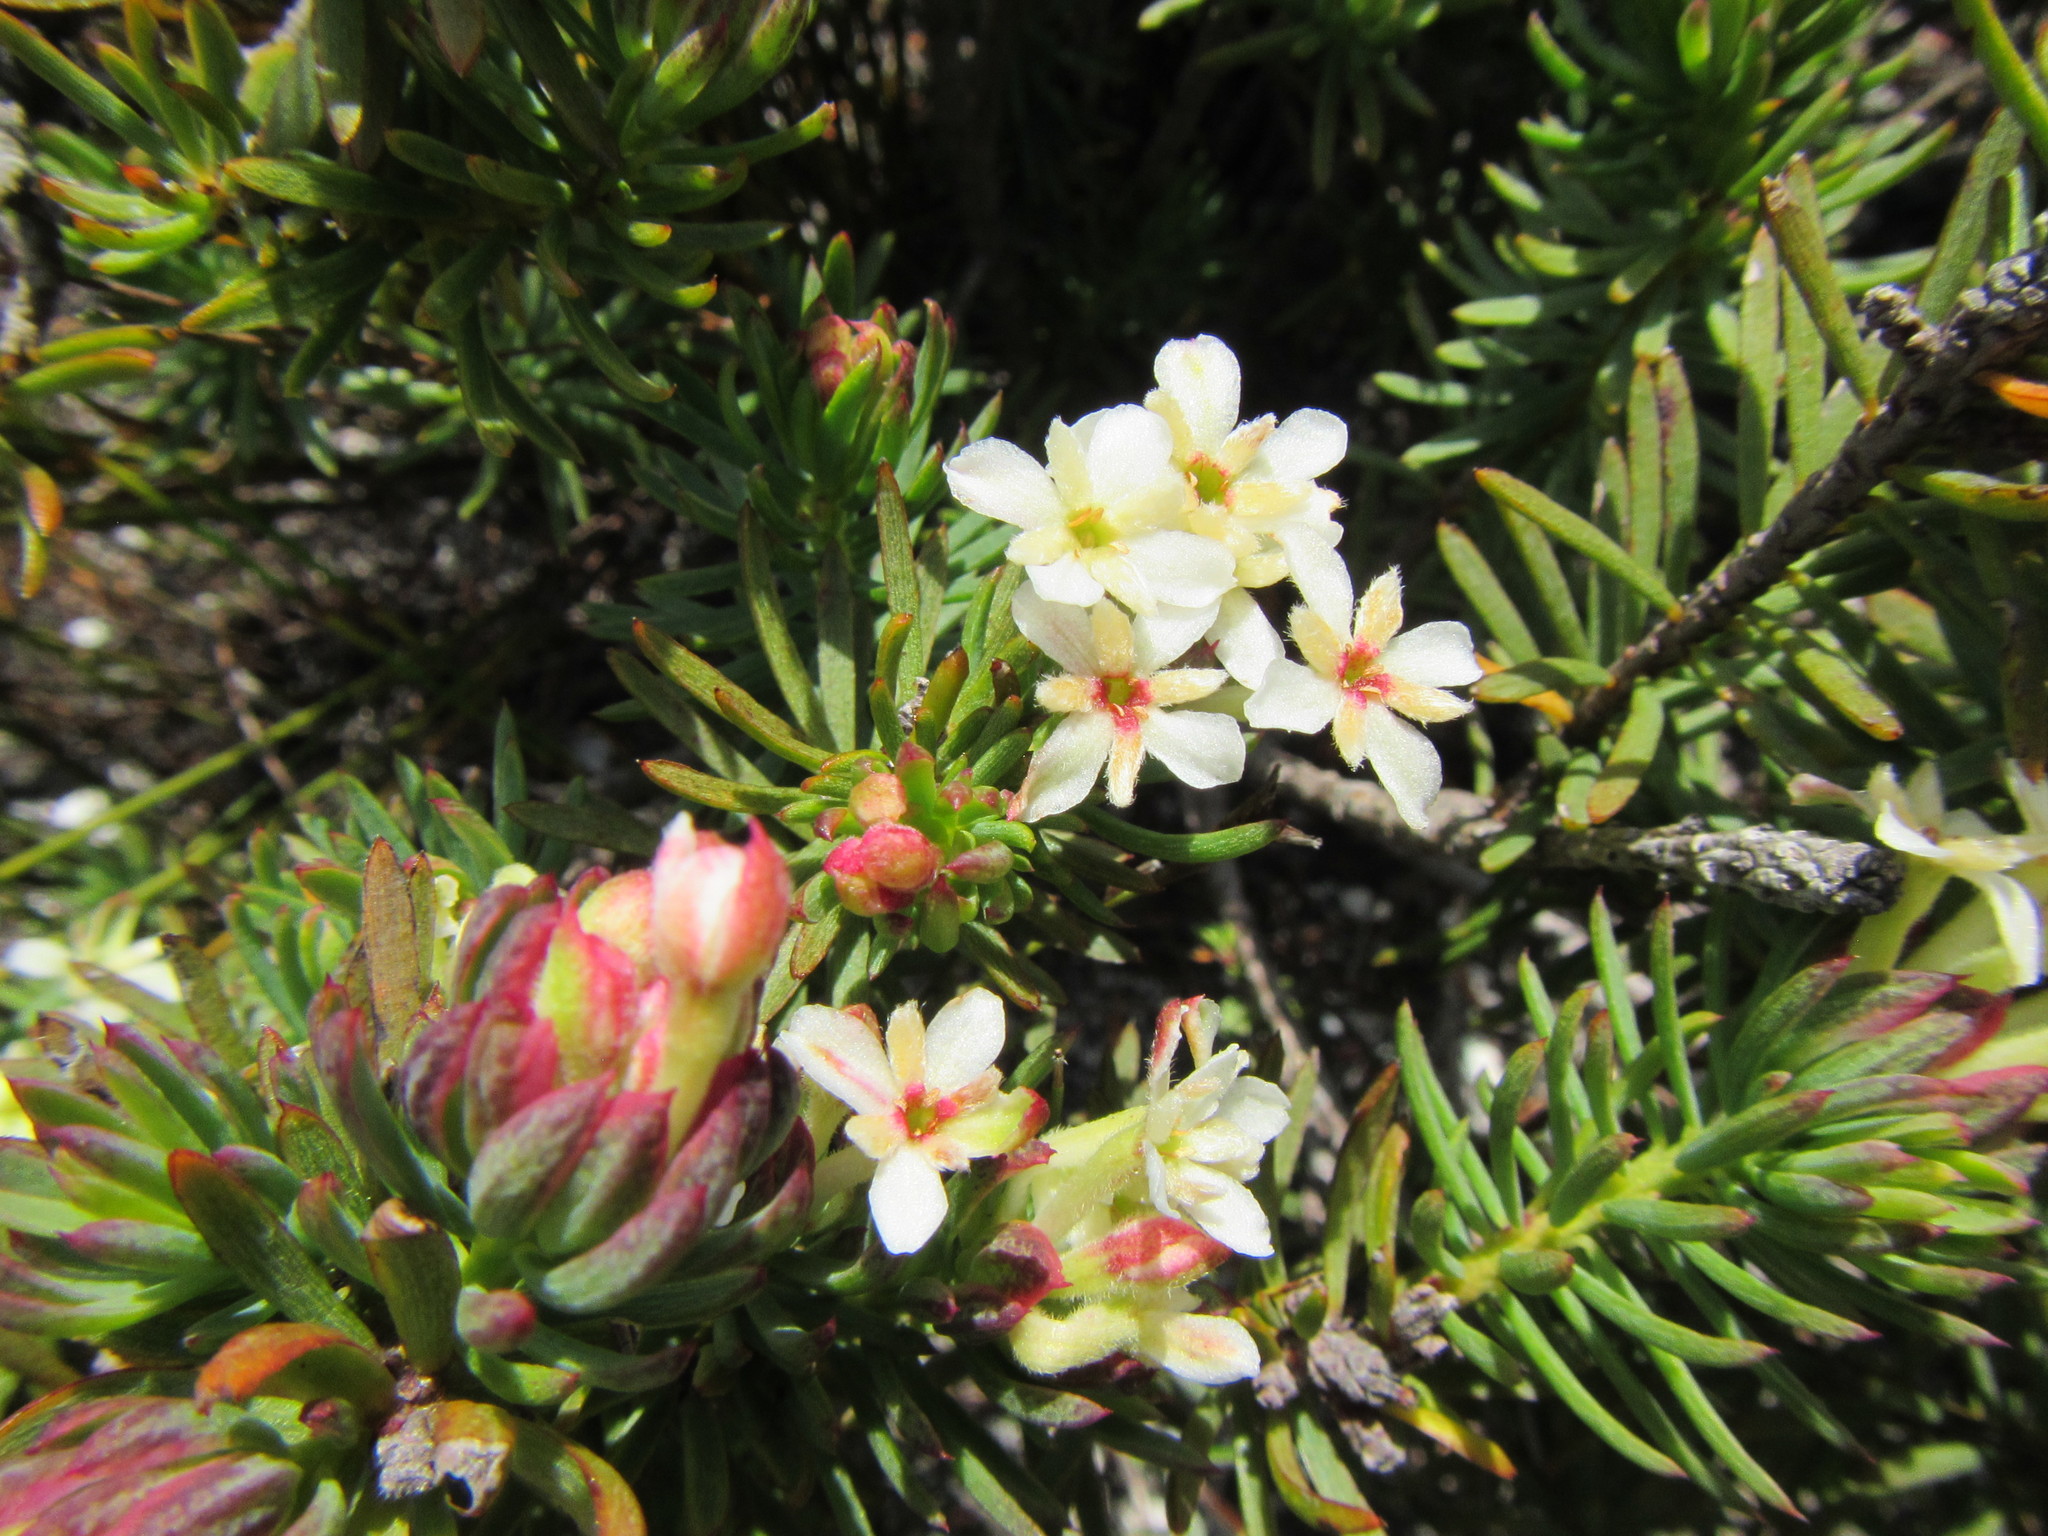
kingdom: Plantae
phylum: Tracheophyta
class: Magnoliopsida
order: Malvales
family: Thymelaeaceae
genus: Gnidia
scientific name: Gnidia pinifolia
